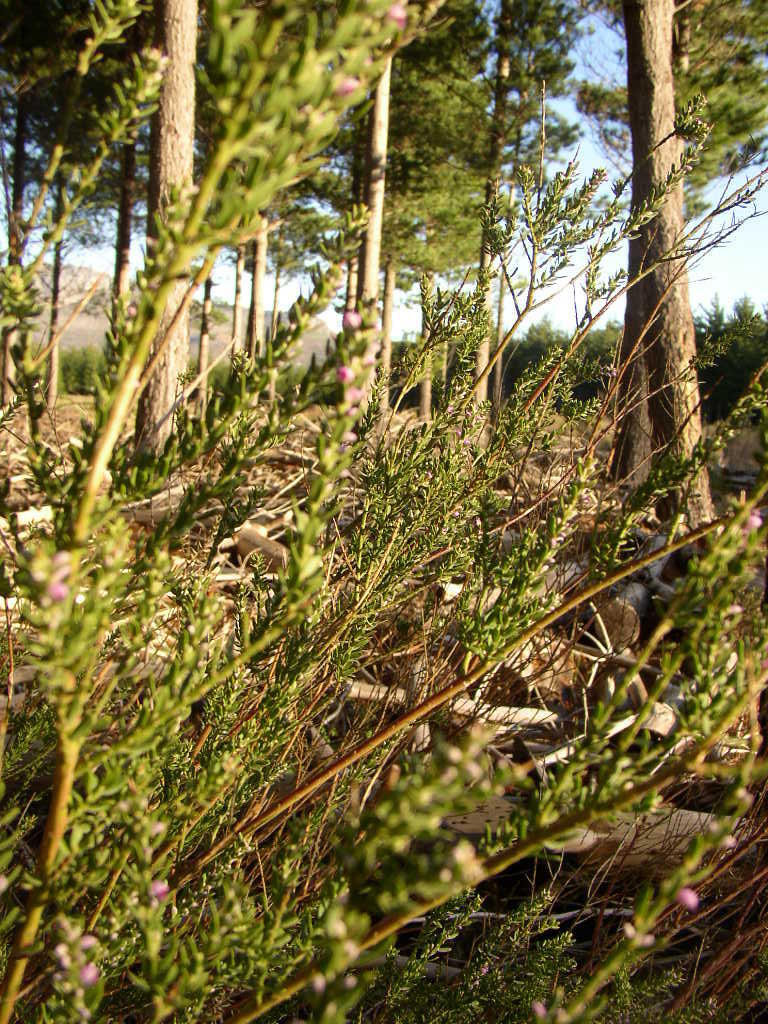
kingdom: Plantae
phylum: Tracheophyta
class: Magnoliopsida
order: Fabales
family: Polygalaceae
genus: Muraltia
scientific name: Muraltia spinosa
